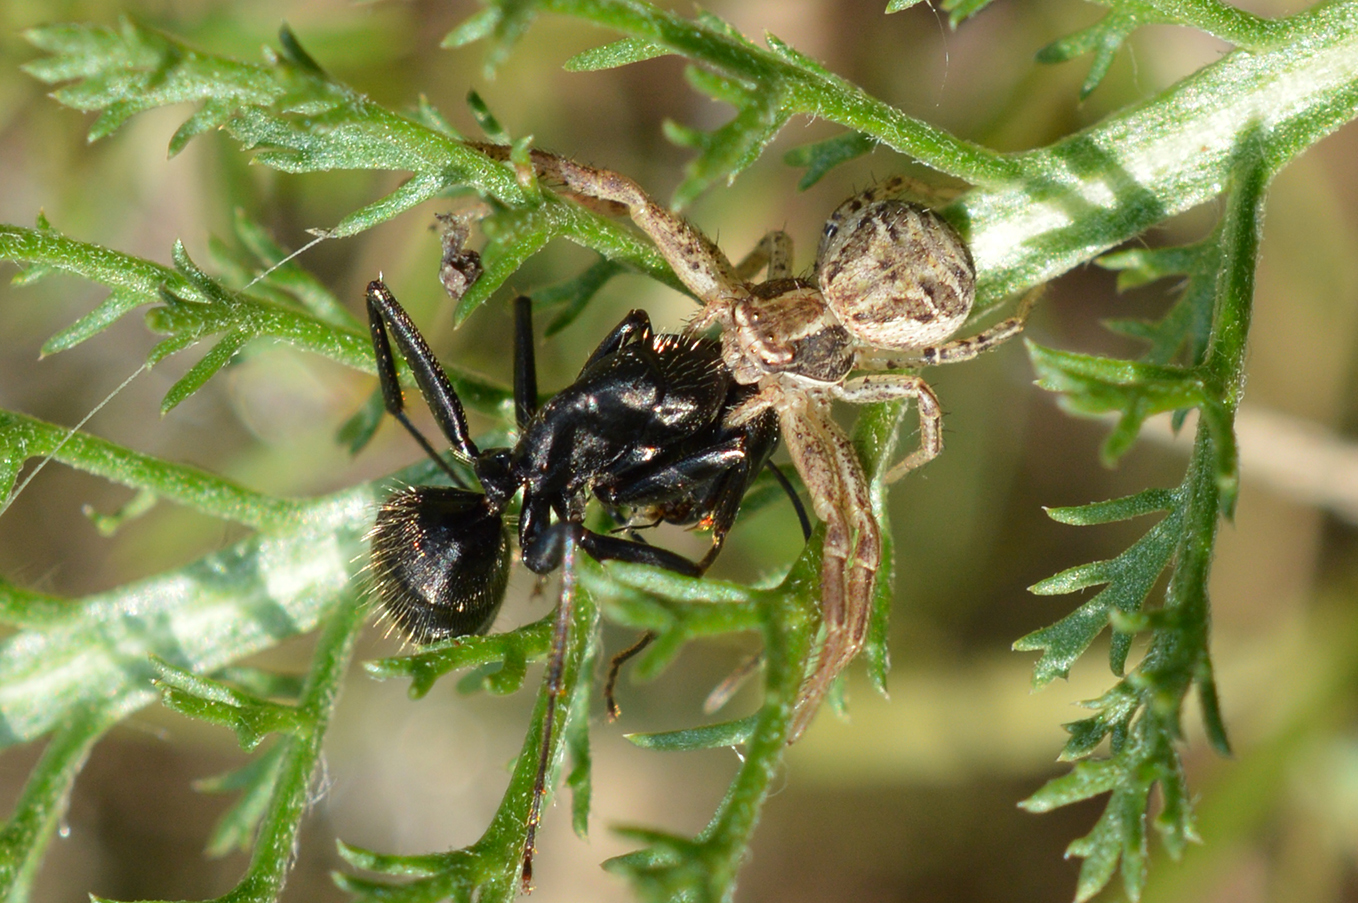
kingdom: Animalia
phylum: Arthropoda
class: Insecta
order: Hymenoptera
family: Formicidae
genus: Camponotus
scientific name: Camponotus vagus
